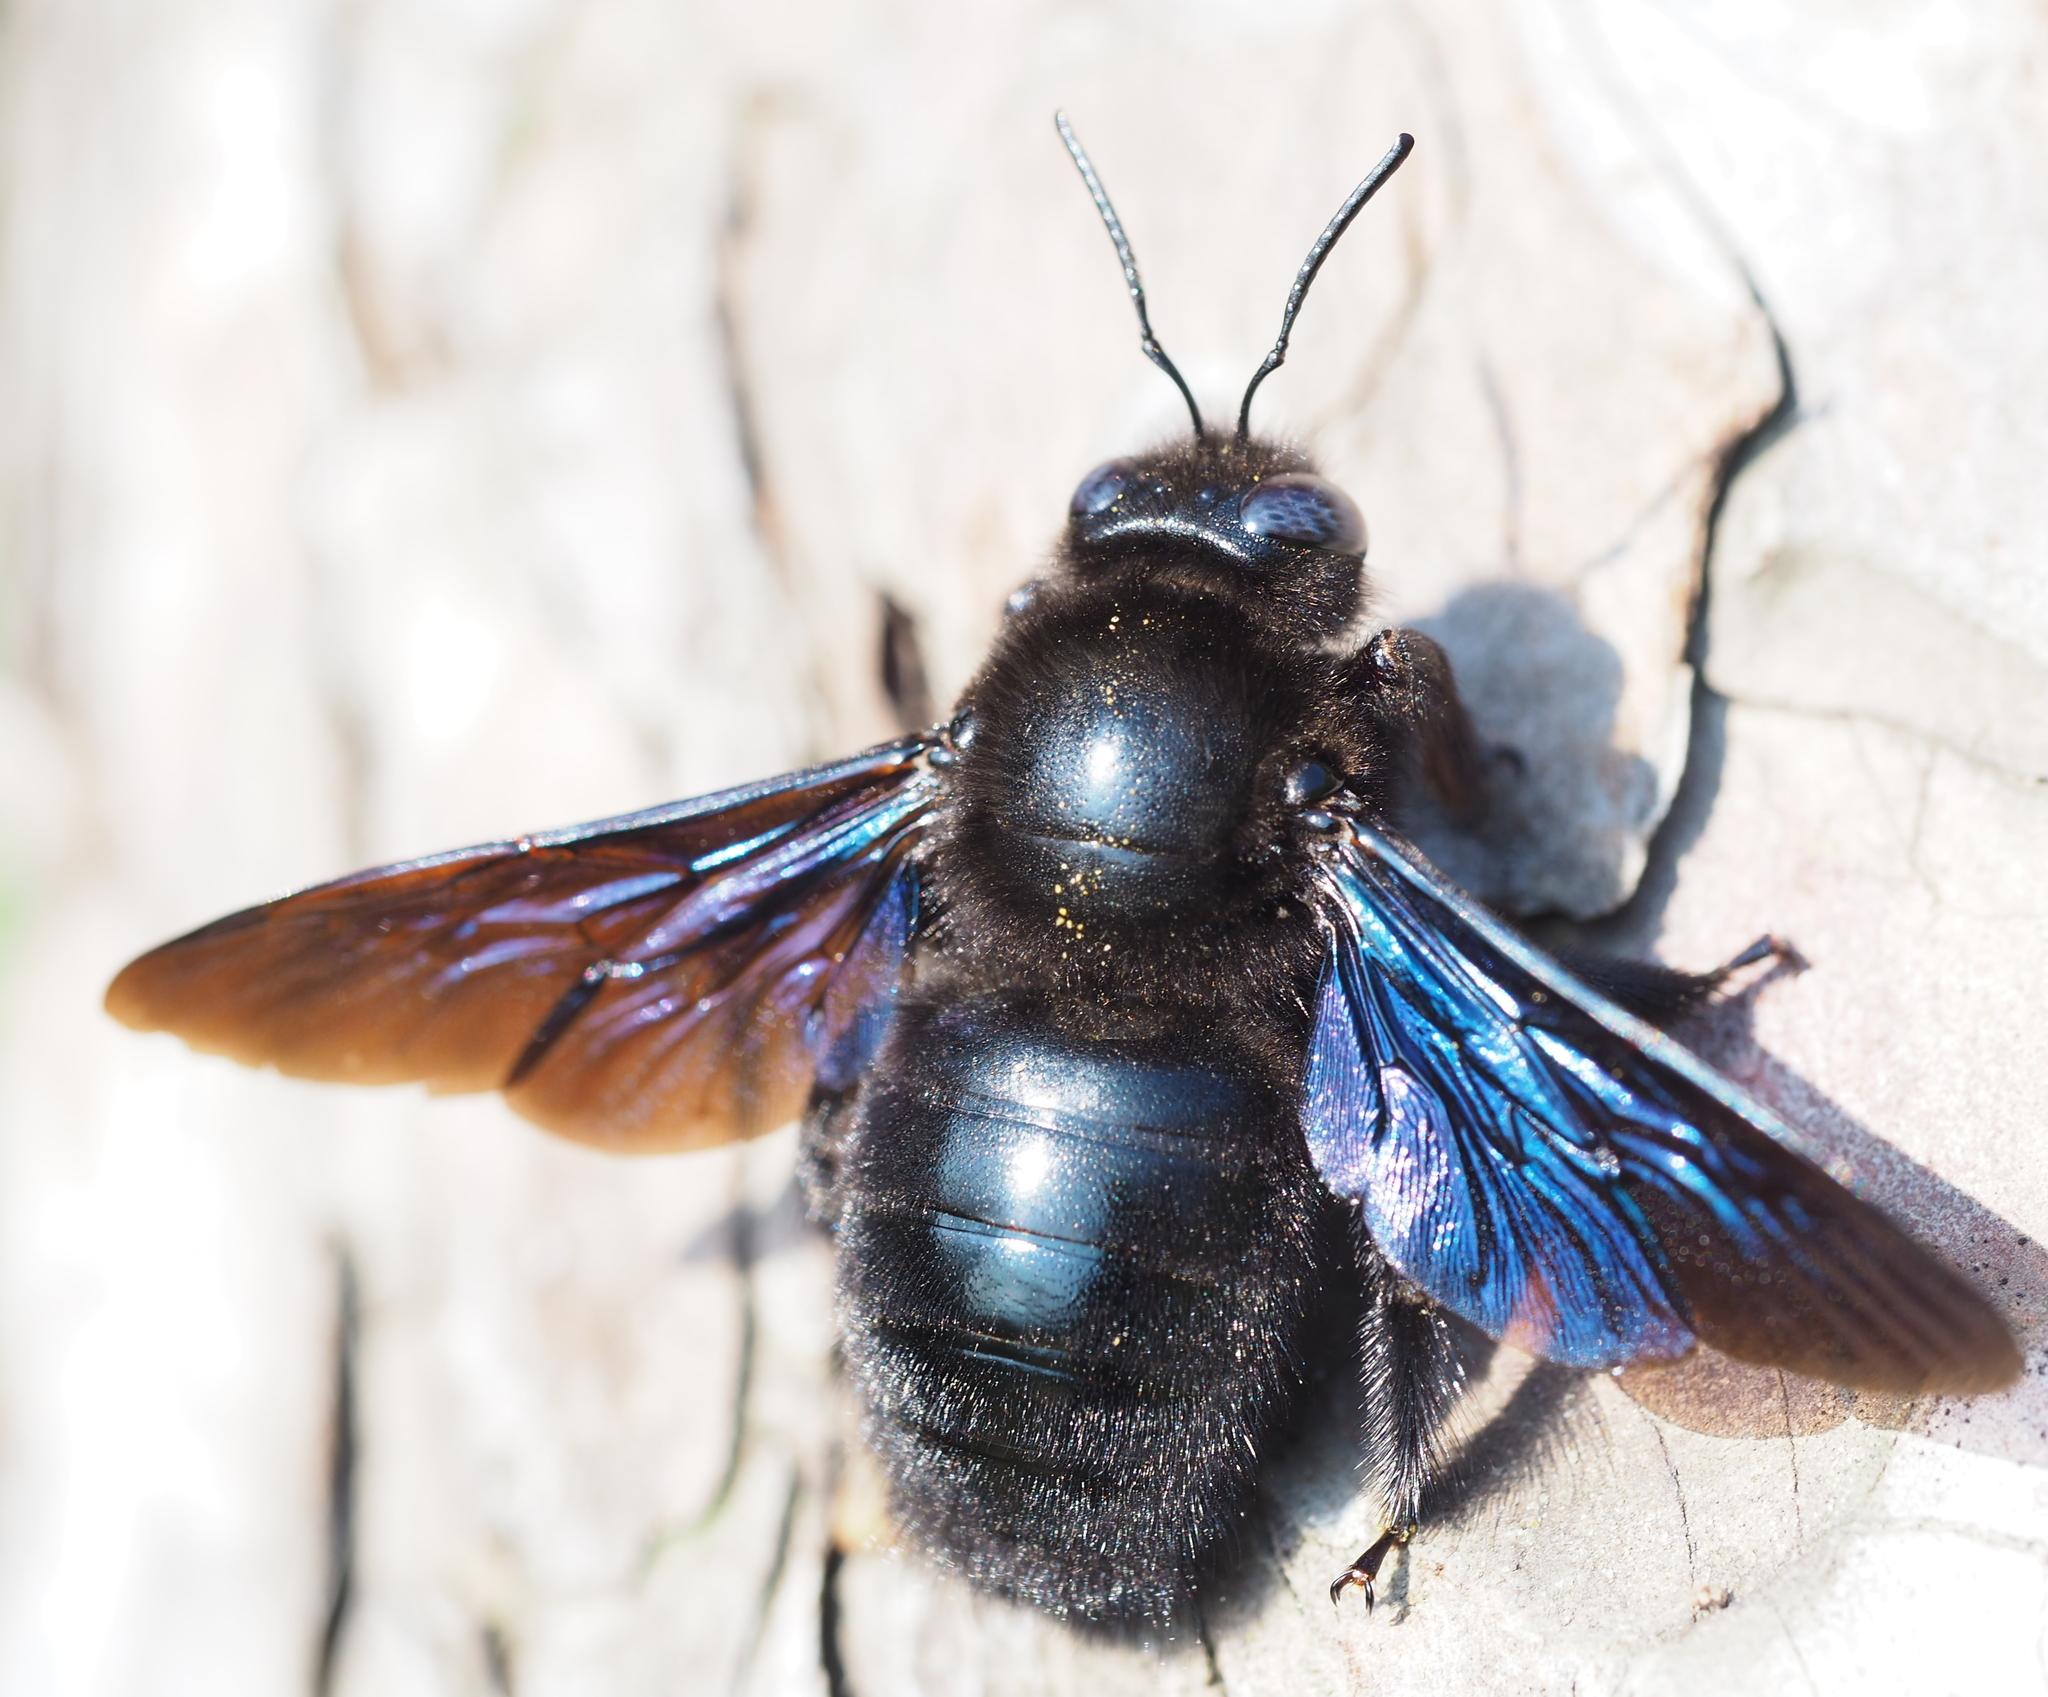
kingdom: Animalia
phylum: Arthropoda
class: Insecta
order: Hymenoptera
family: Apidae
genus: Xylocopa
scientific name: Xylocopa valga
